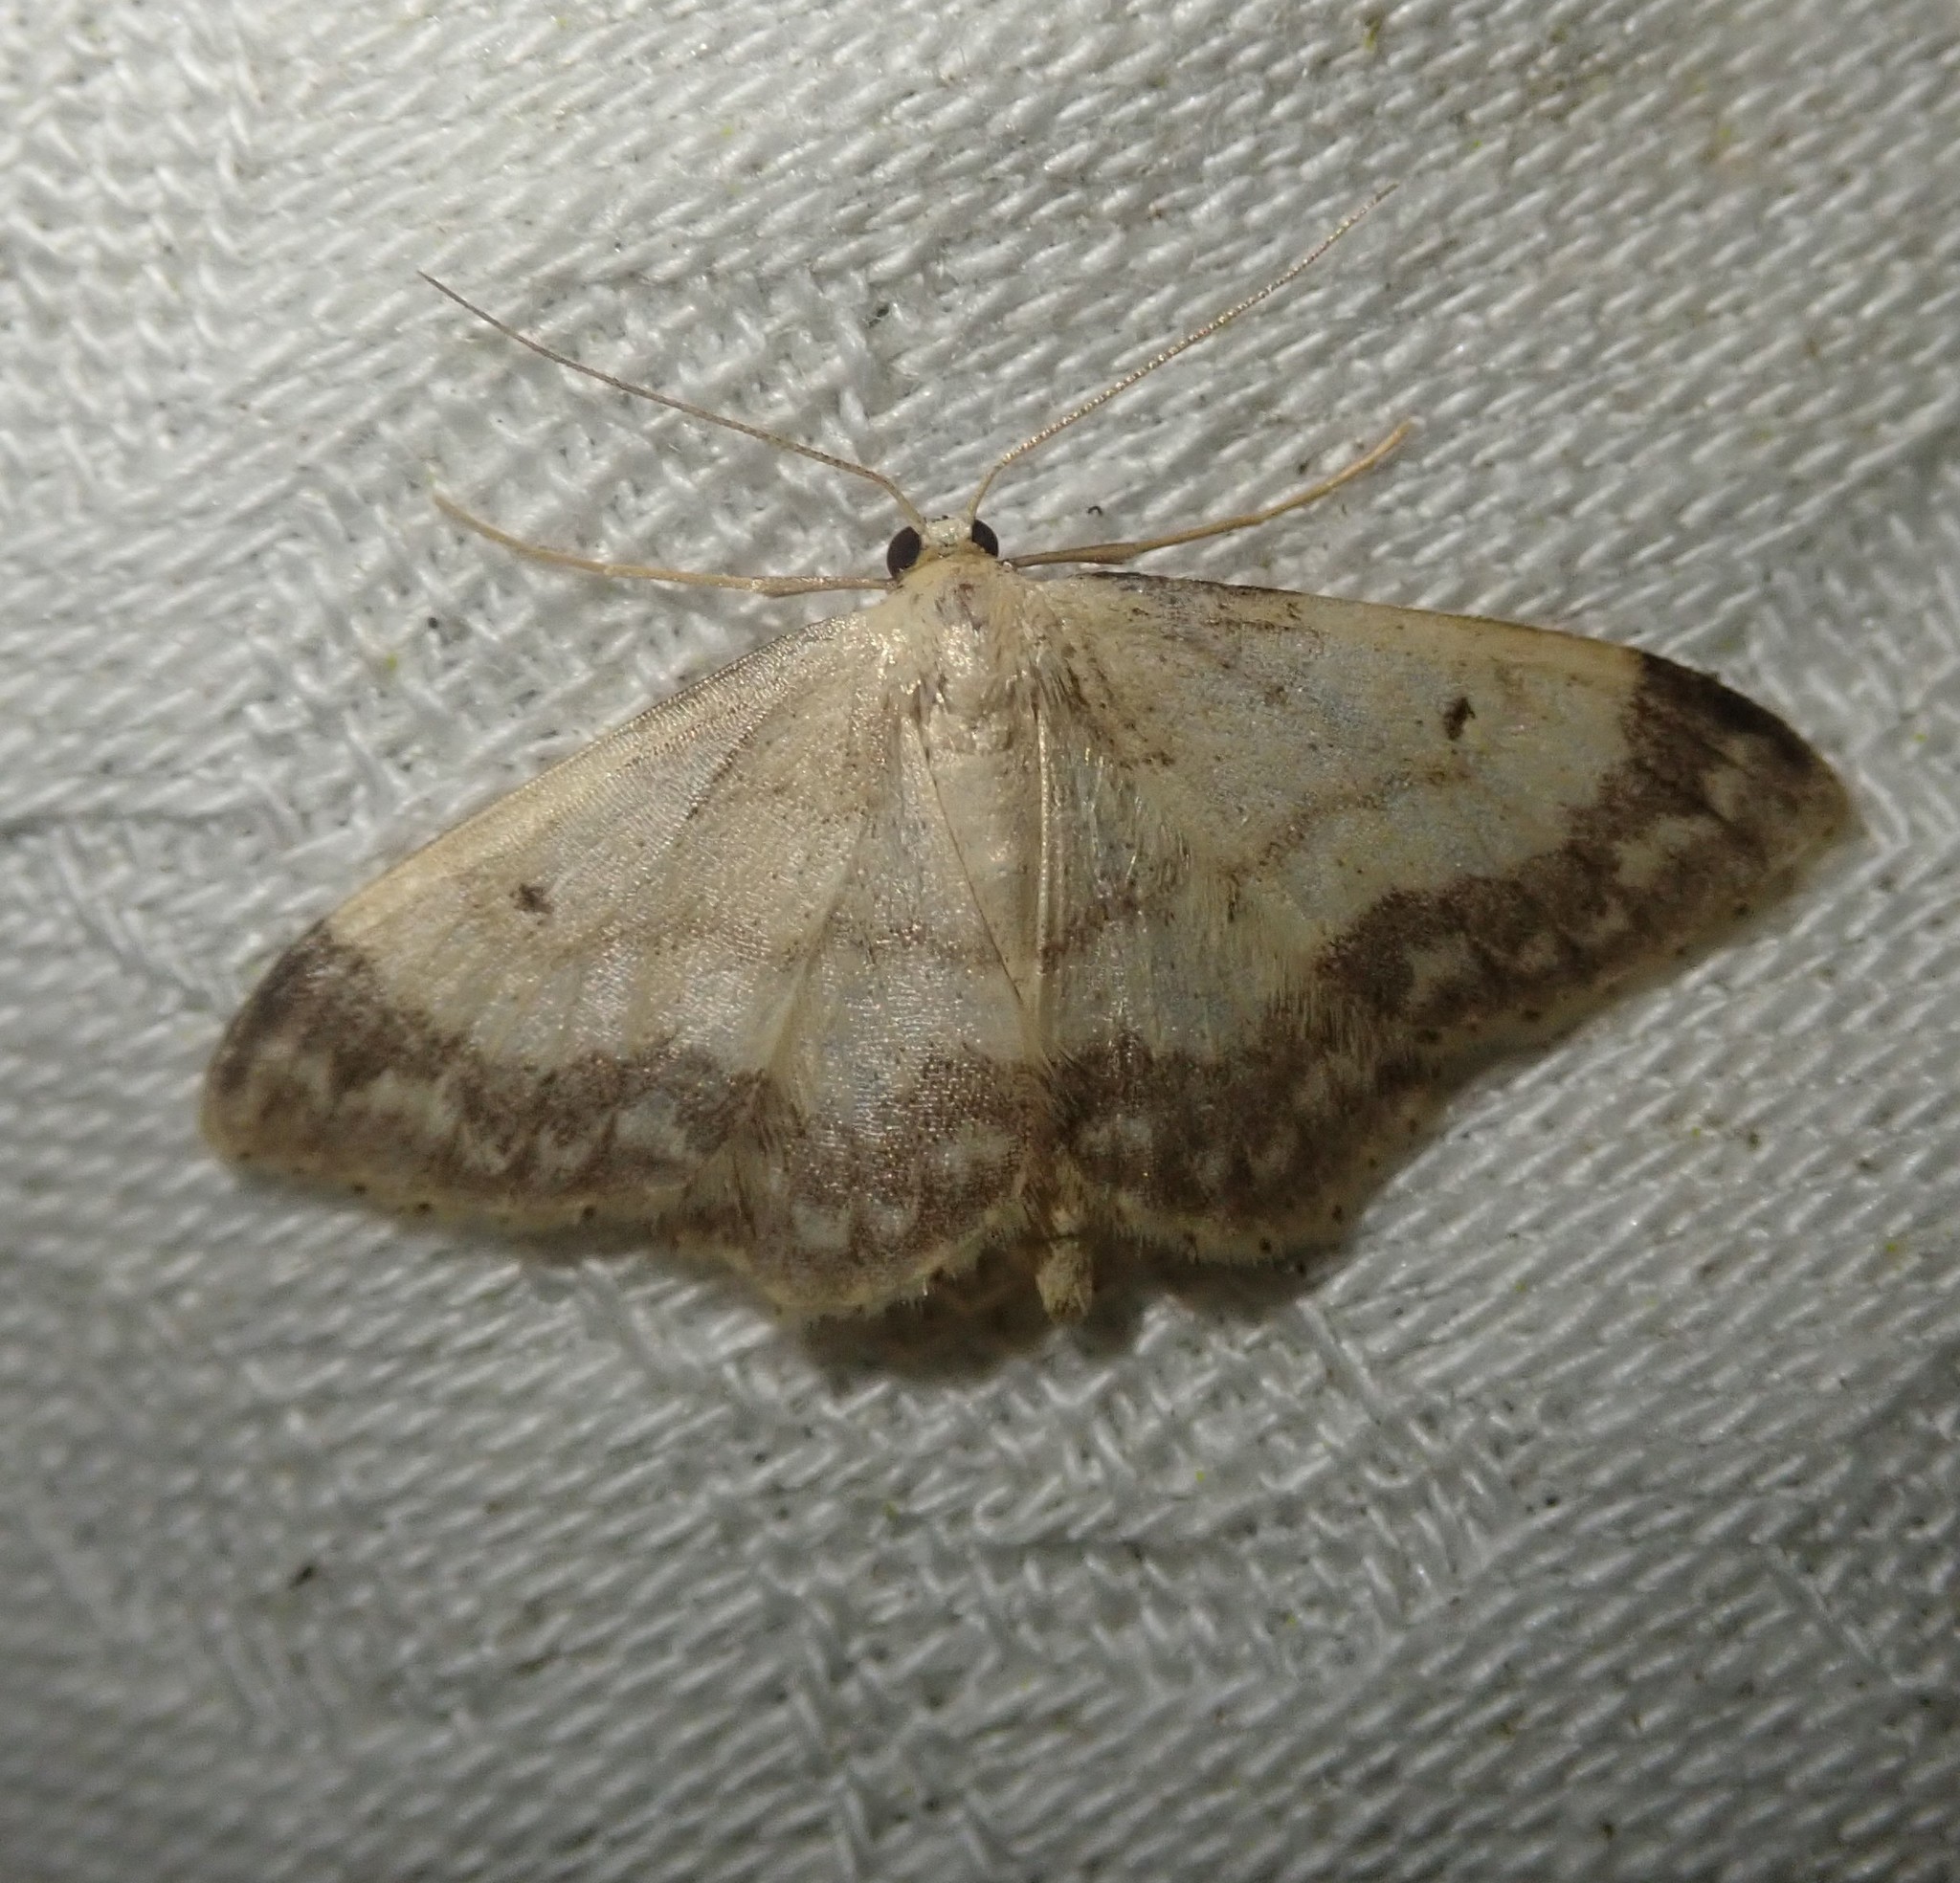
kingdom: Animalia
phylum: Arthropoda
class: Insecta
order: Lepidoptera
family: Geometridae
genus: Idaea
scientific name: Idaea biselata
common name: Small fan-footed wave
